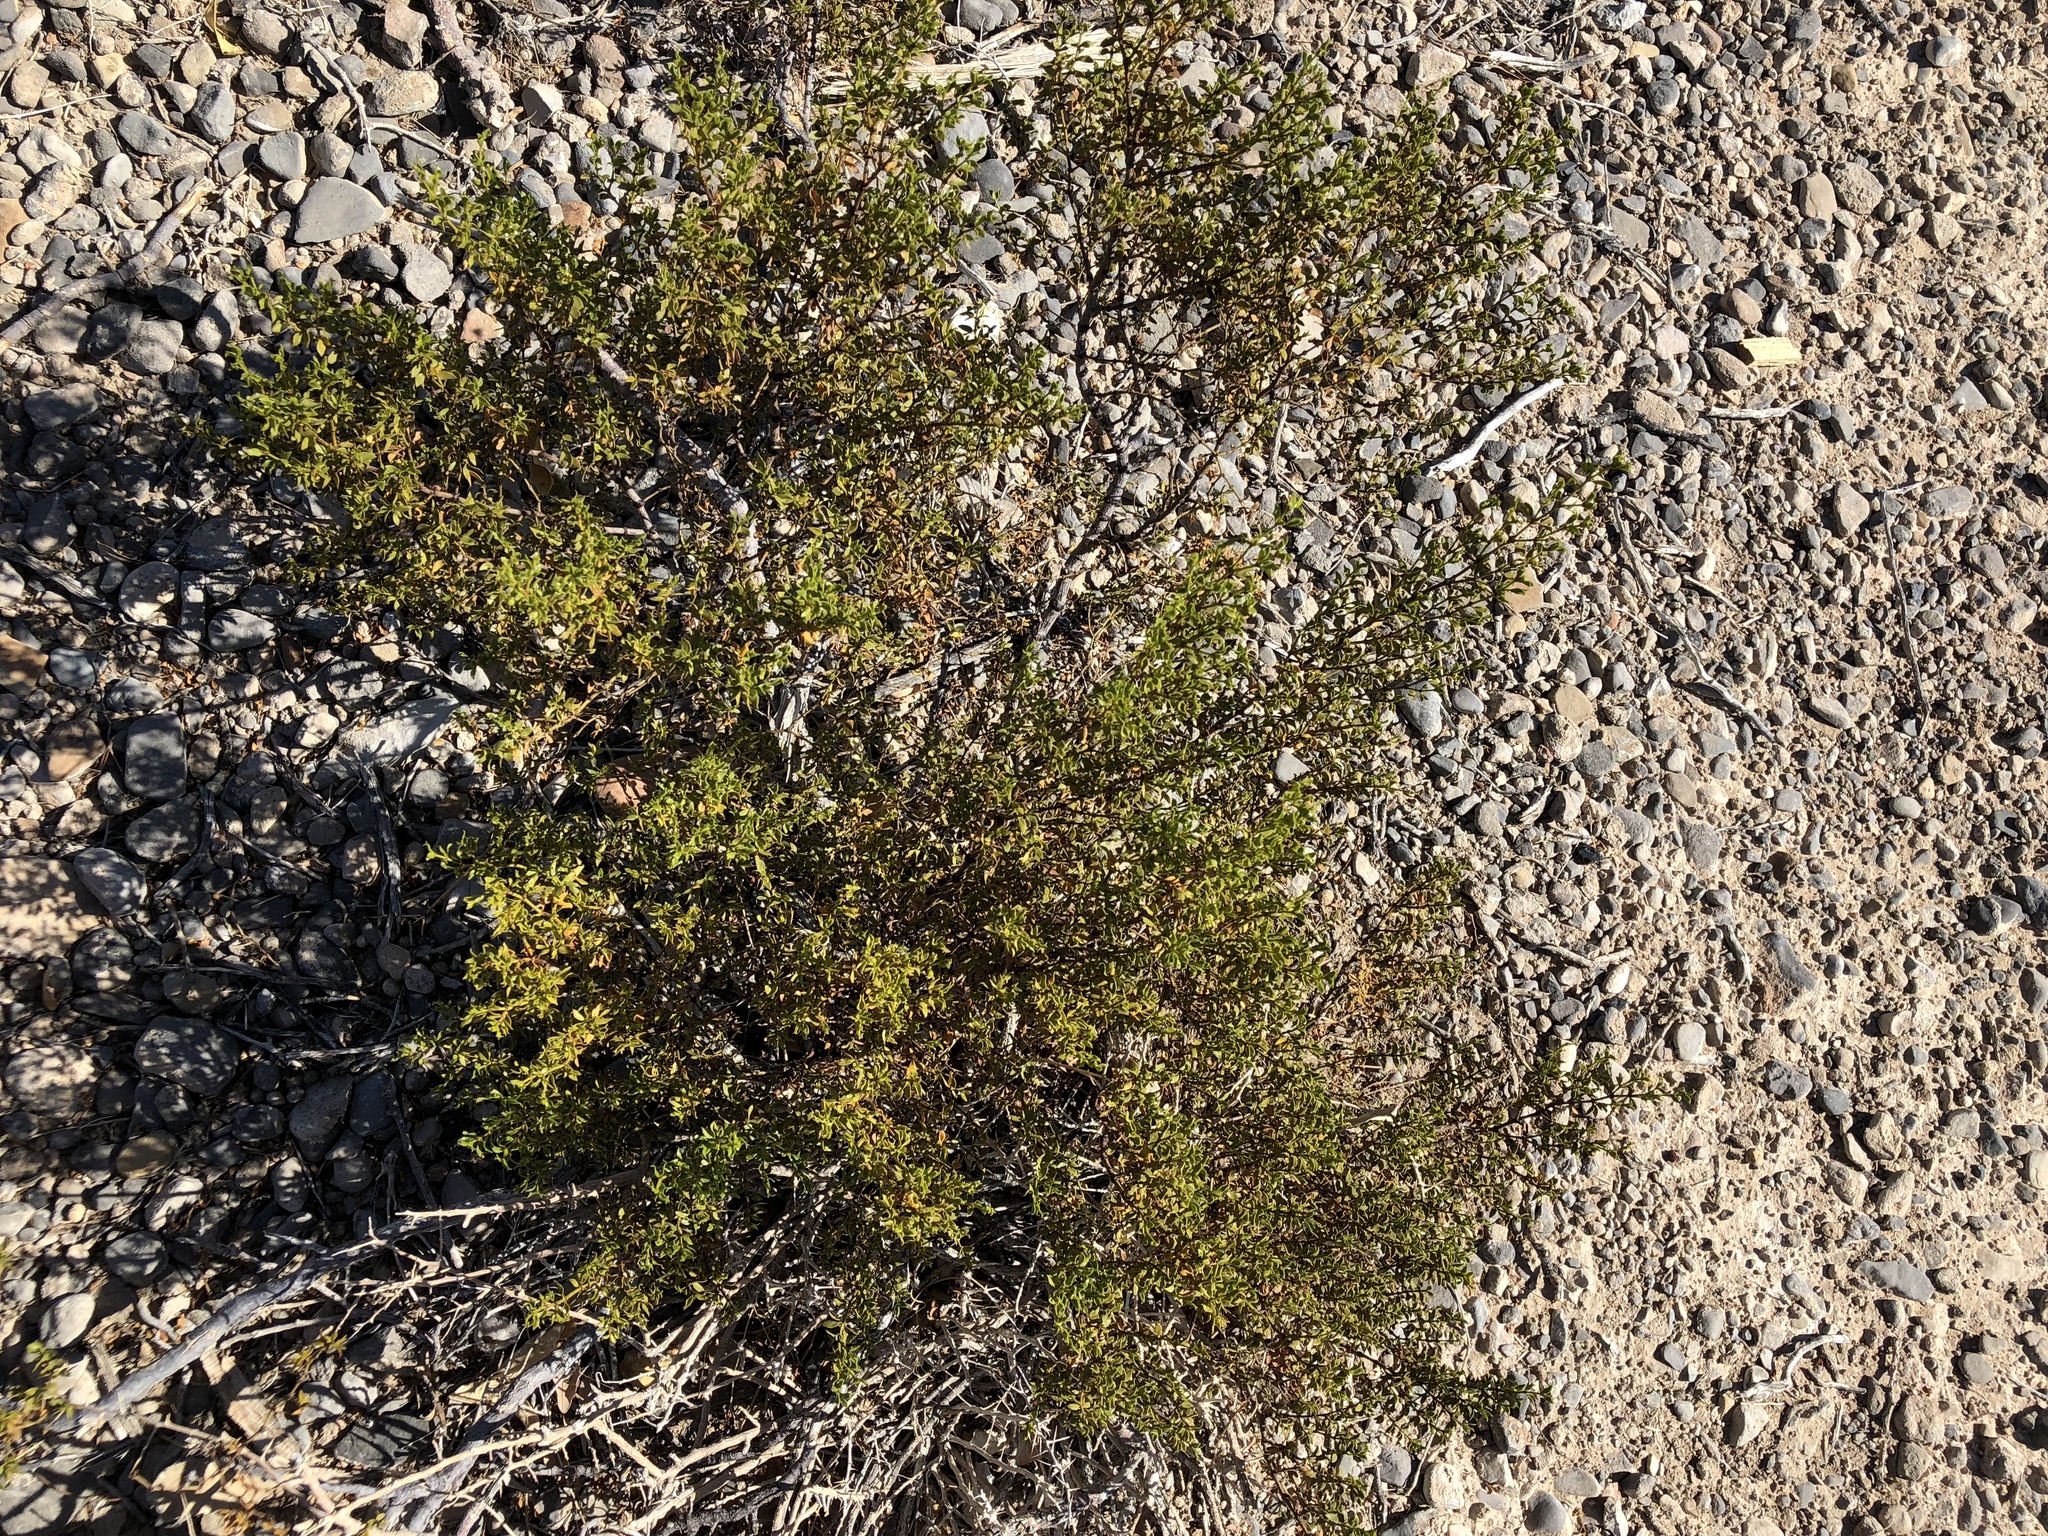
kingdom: Plantae
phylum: Tracheophyta
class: Magnoliopsida
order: Zygophyllales
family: Zygophyllaceae
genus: Larrea
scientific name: Larrea tridentata
